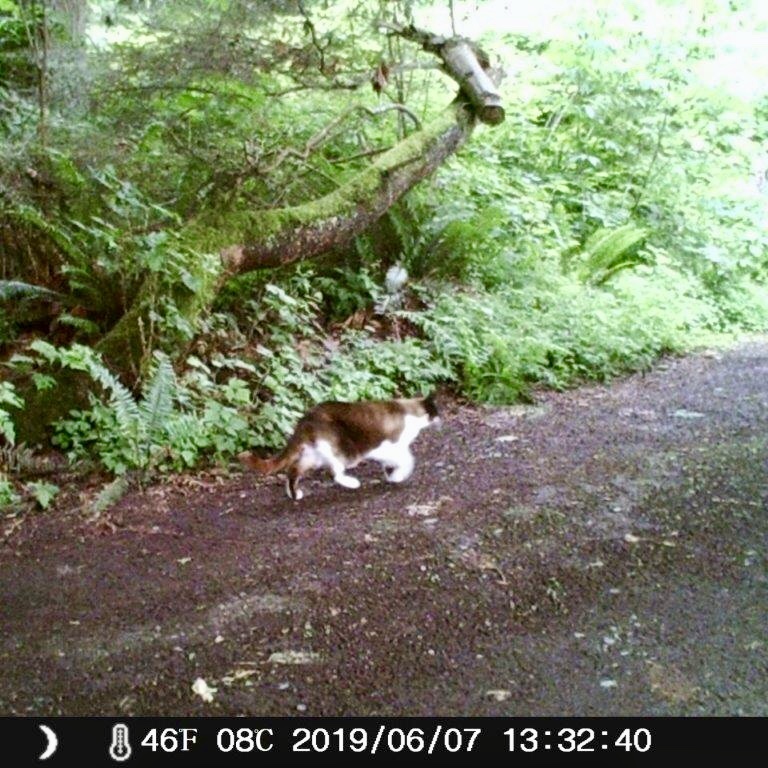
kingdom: Animalia
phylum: Chordata
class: Mammalia
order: Carnivora
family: Felidae
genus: Felis
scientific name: Felis catus
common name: Domestic cat
